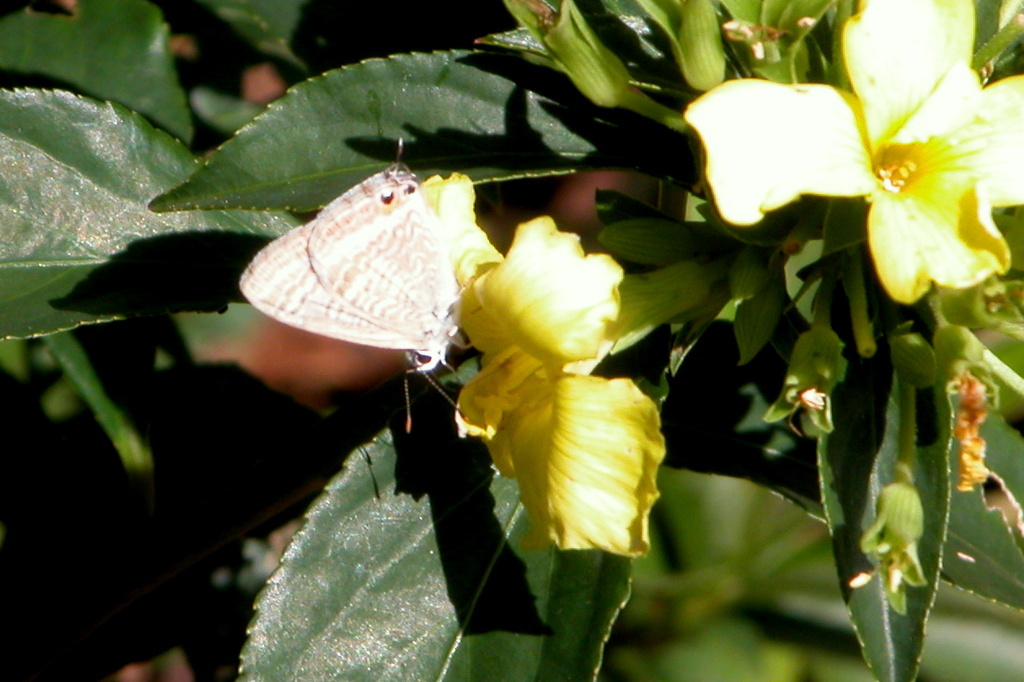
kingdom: Animalia
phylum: Arthropoda
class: Insecta
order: Lepidoptera
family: Lycaenidae
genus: Lampides
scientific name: Lampides boeticus
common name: Long-tailed blue
